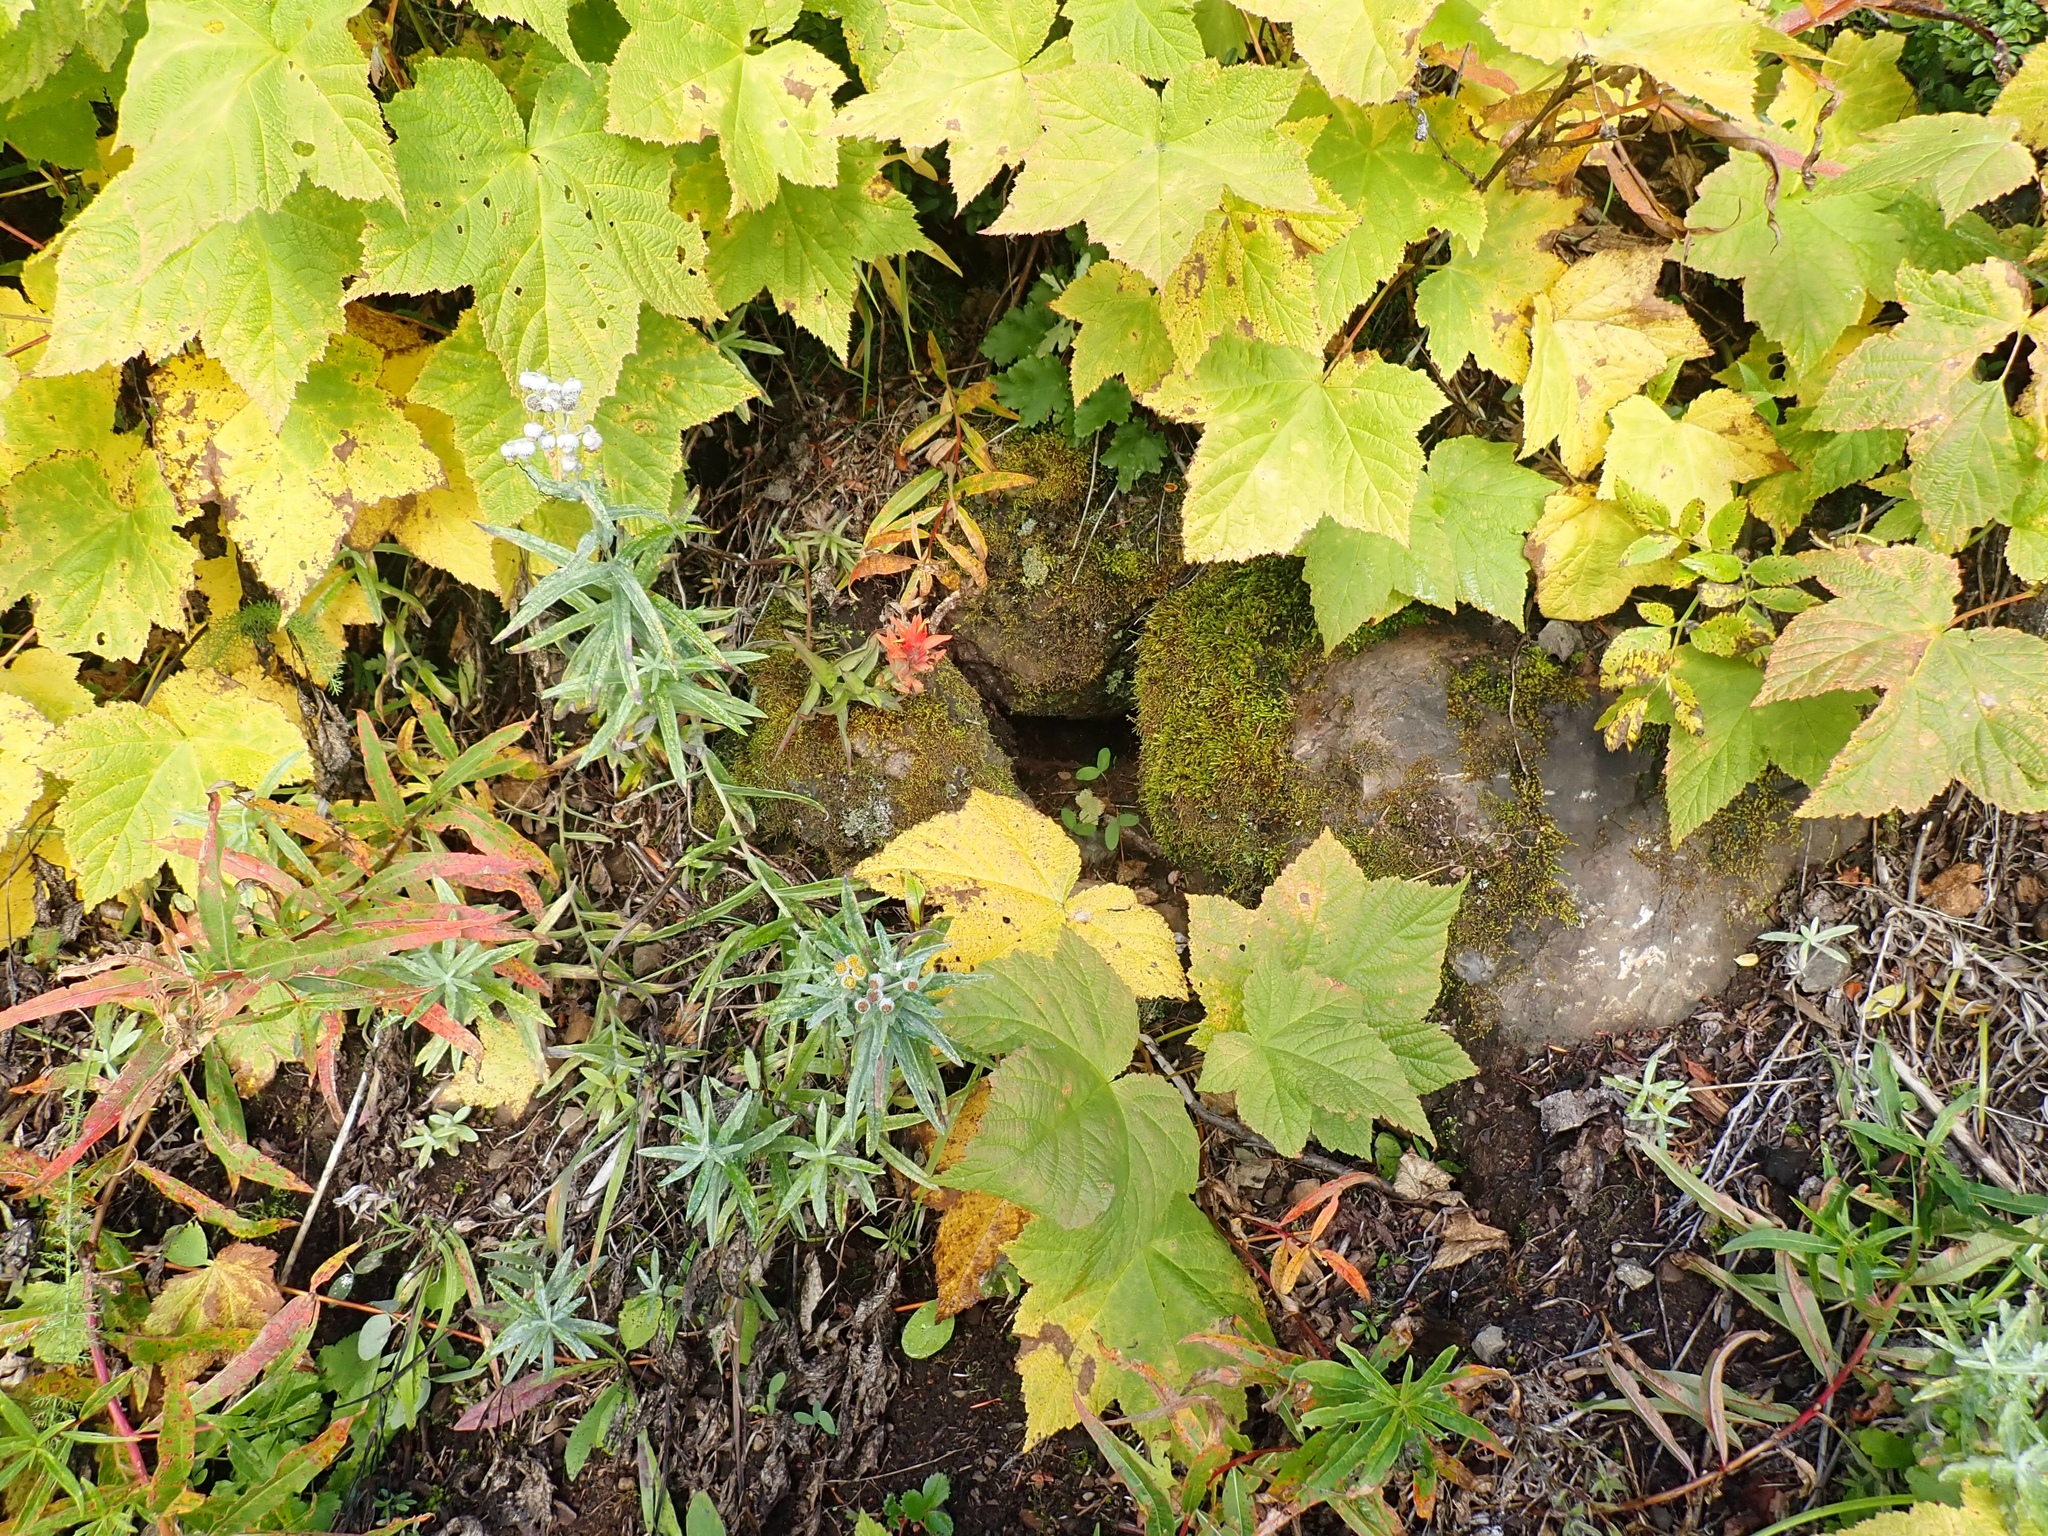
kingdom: Plantae
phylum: Tracheophyta
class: Magnoliopsida
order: Rosales
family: Rosaceae
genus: Rubus
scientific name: Rubus parviflorus
